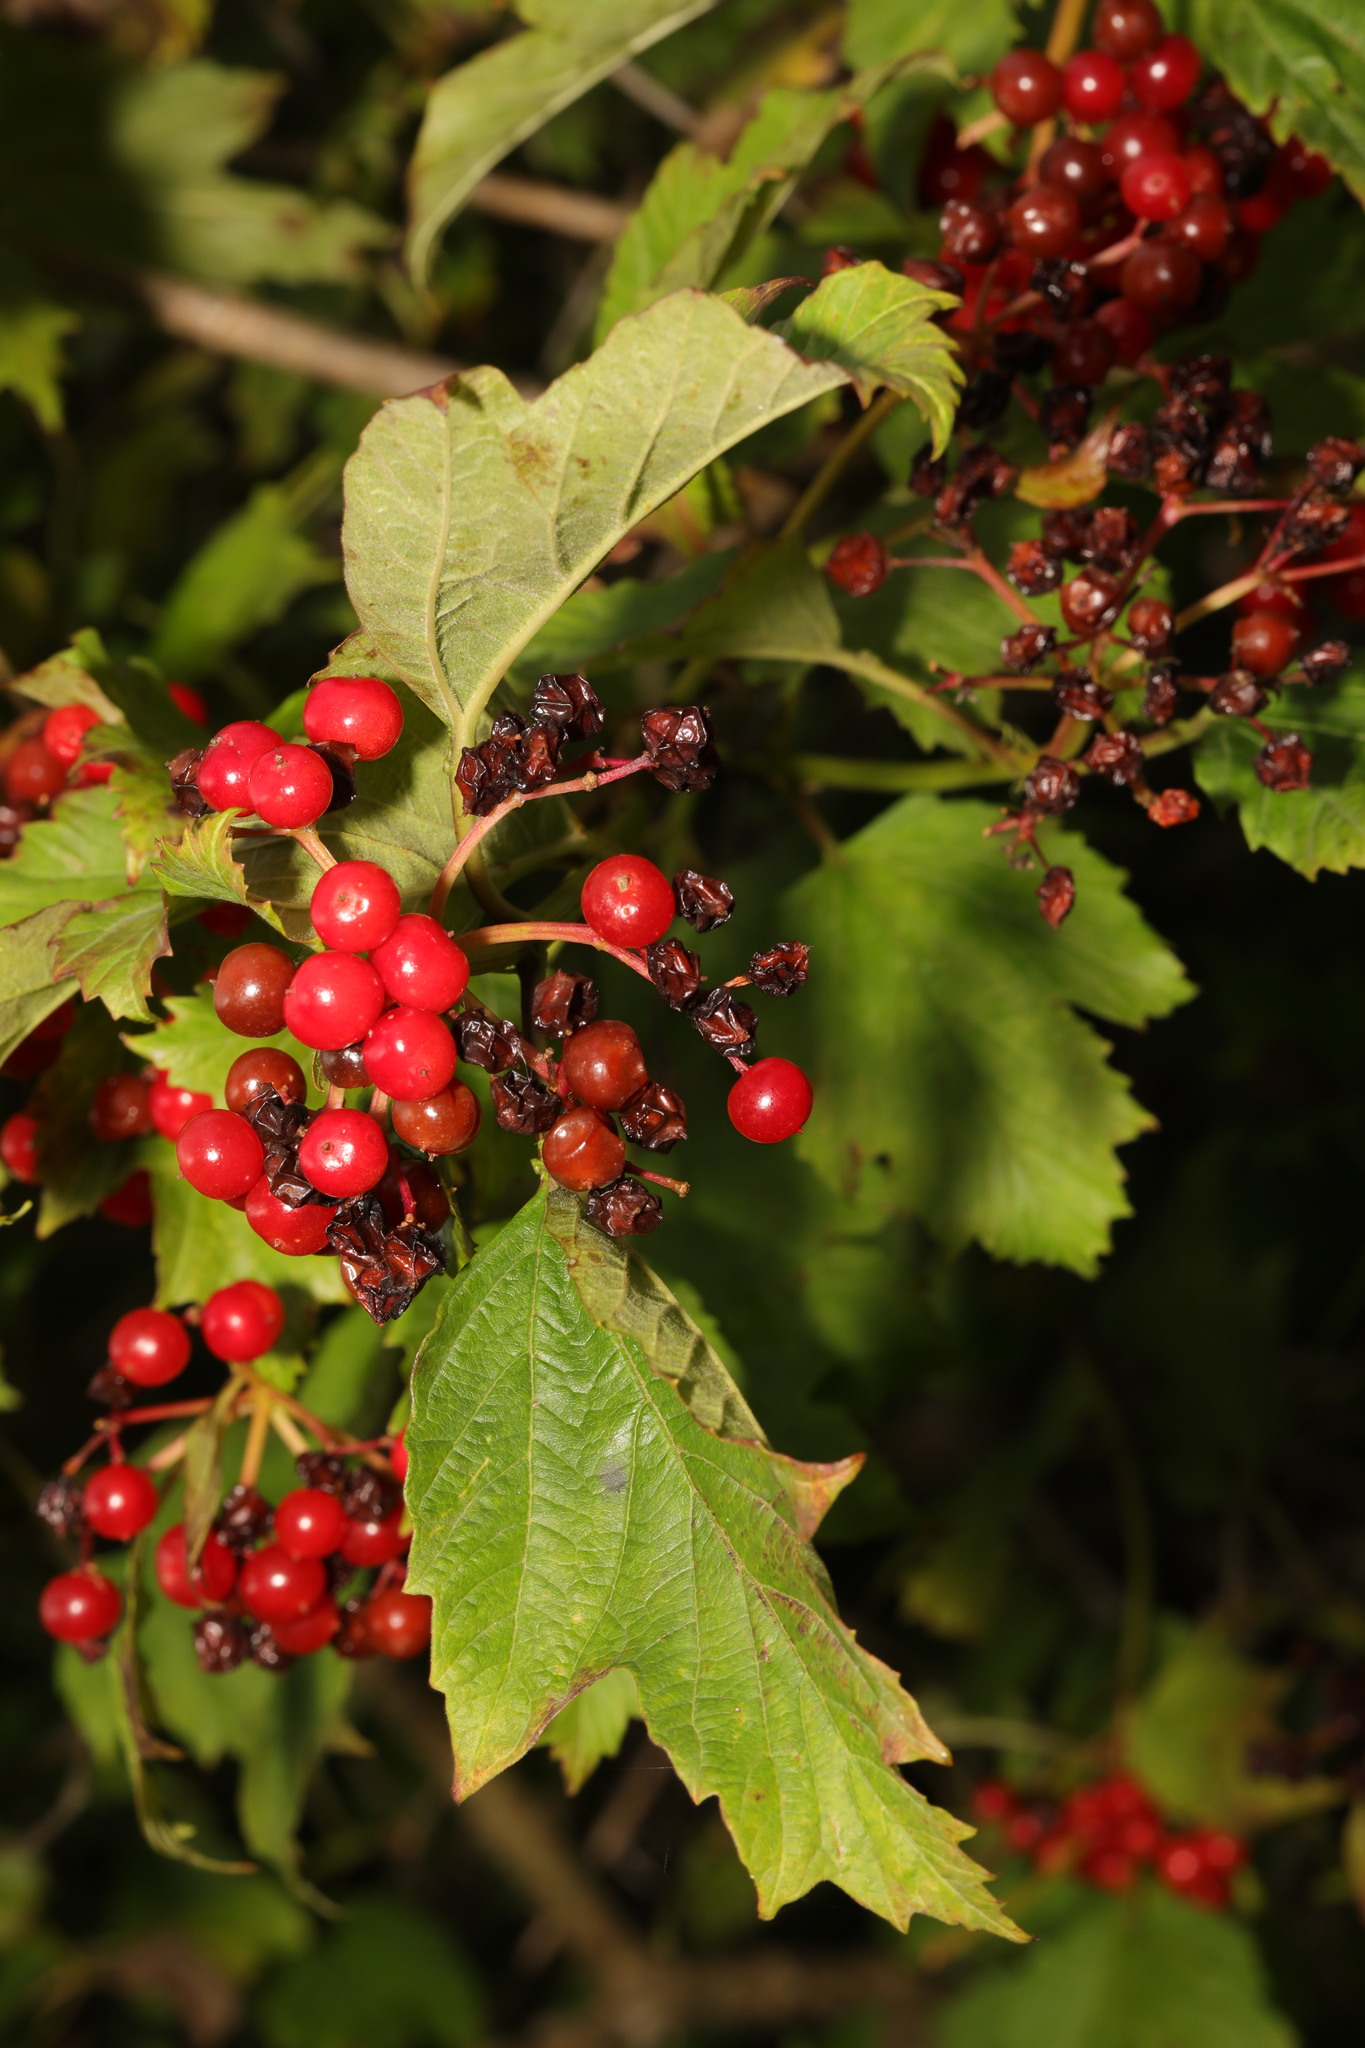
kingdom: Plantae
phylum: Tracheophyta
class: Magnoliopsida
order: Dipsacales
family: Viburnaceae
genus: Viburnum
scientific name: Viburnum opulus
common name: Guelder-rose
